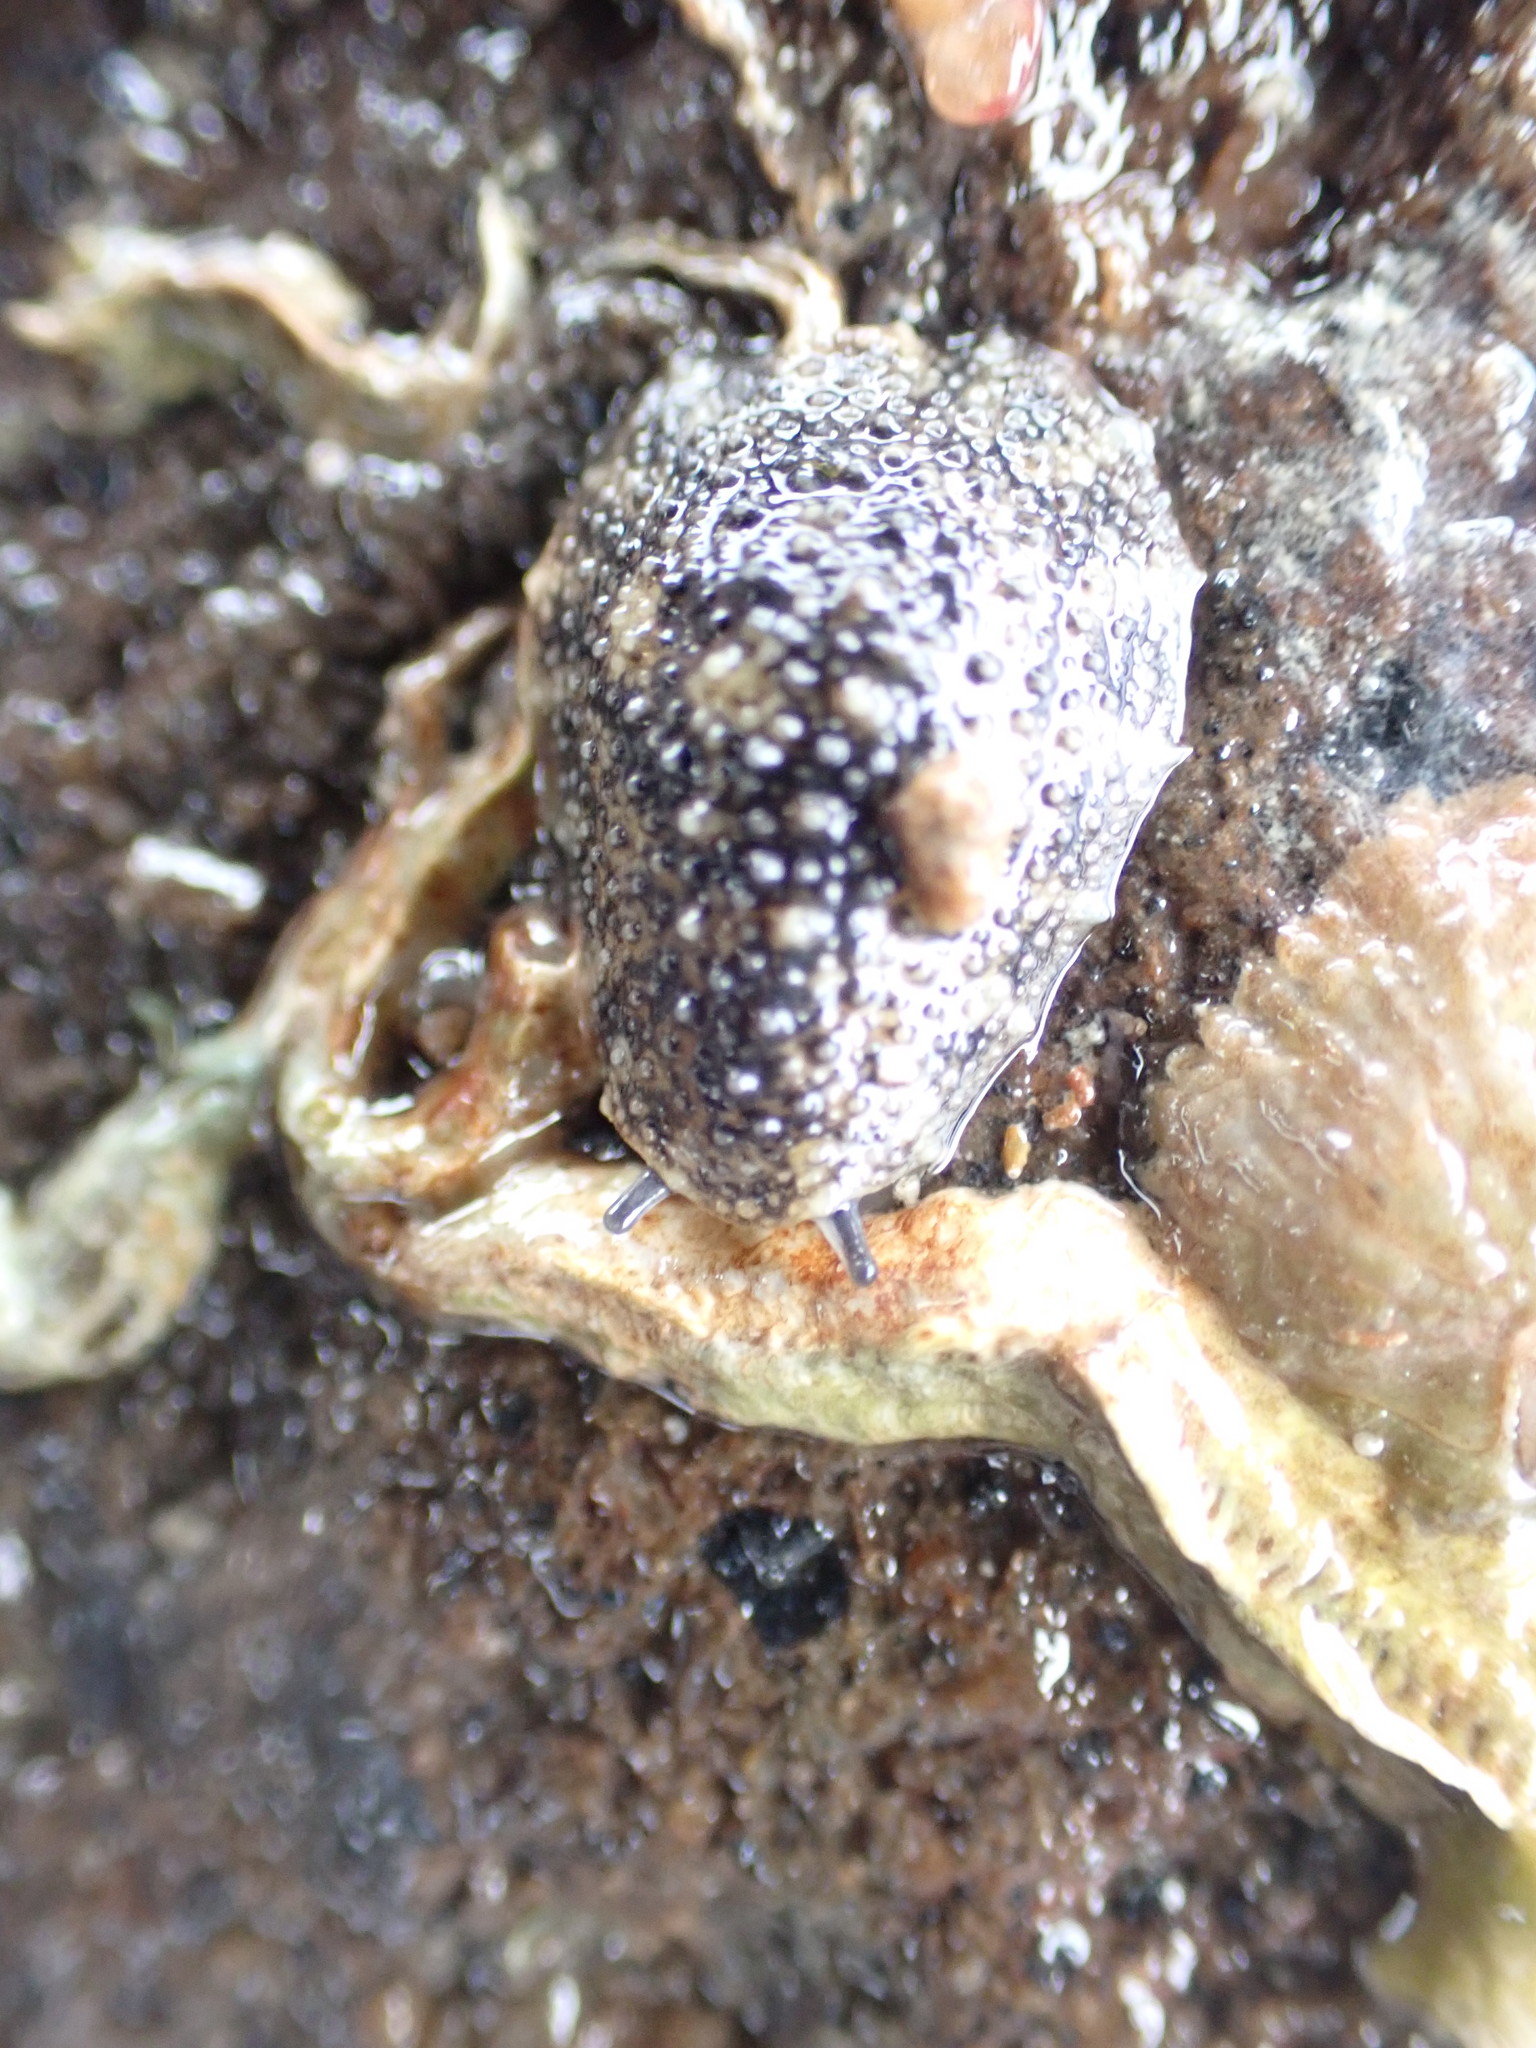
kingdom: Animalia
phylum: Mollusca
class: Gastropoda
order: Systellommatophora
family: Onchidiidae
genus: Onchidella
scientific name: Onchidella nigricans
